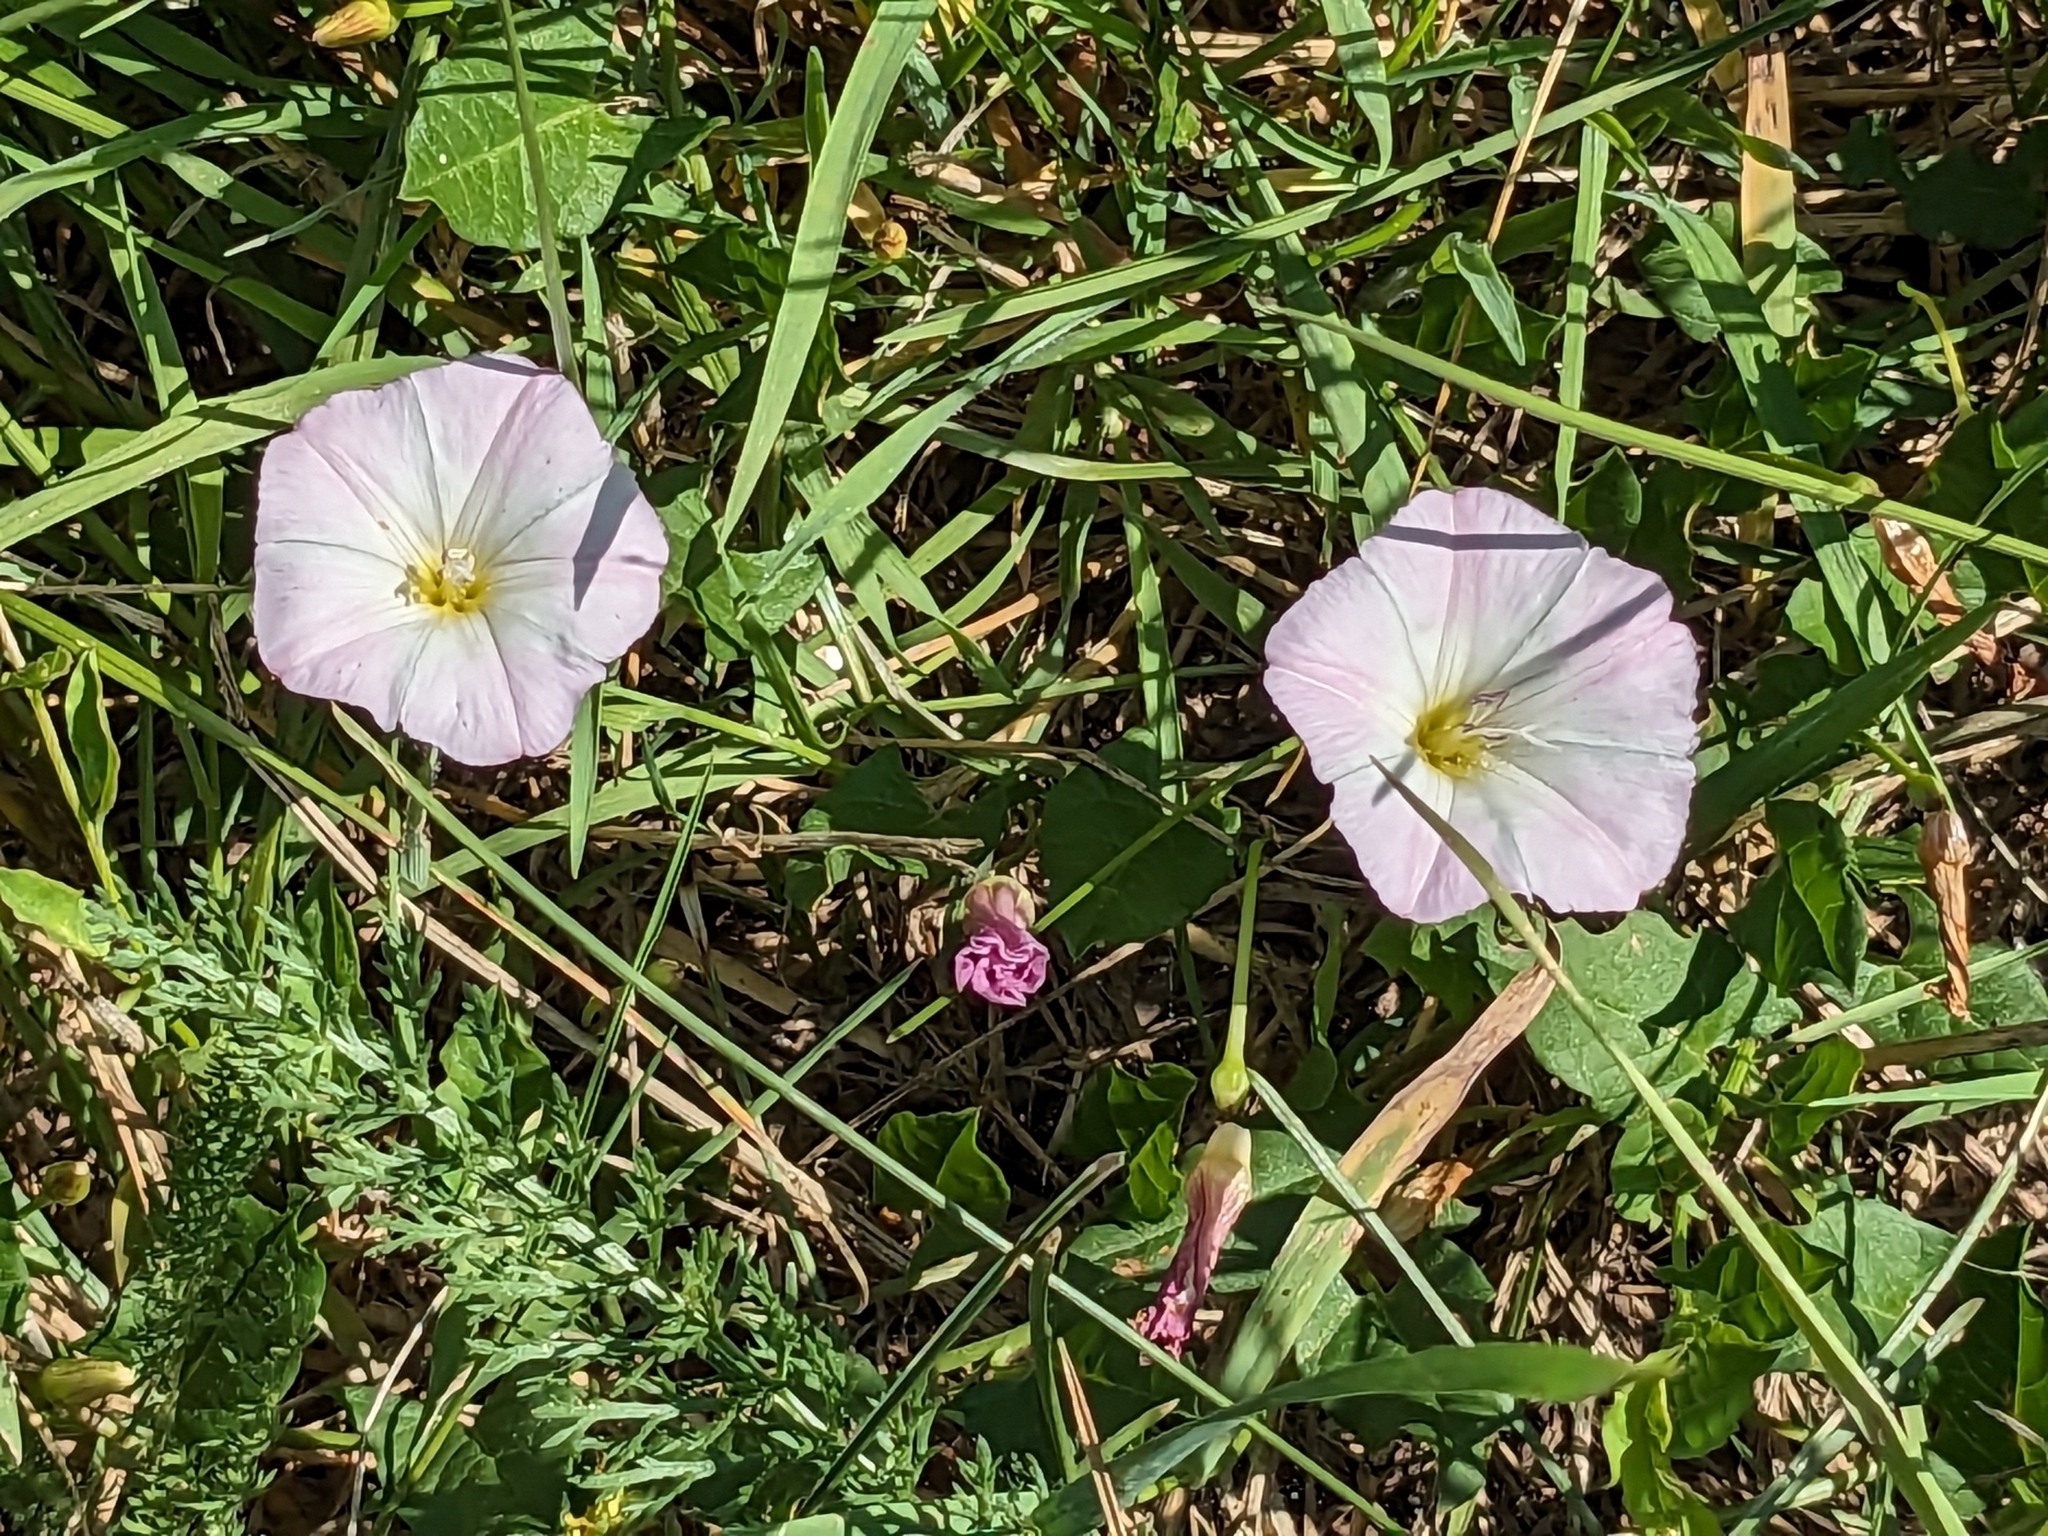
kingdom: Plantae
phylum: Tracheophyta
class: Magnoliopsida
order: Solanales
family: Convolvulaceae
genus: Convolvulus
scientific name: Convolvulus arvensis
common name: Field bindweed
